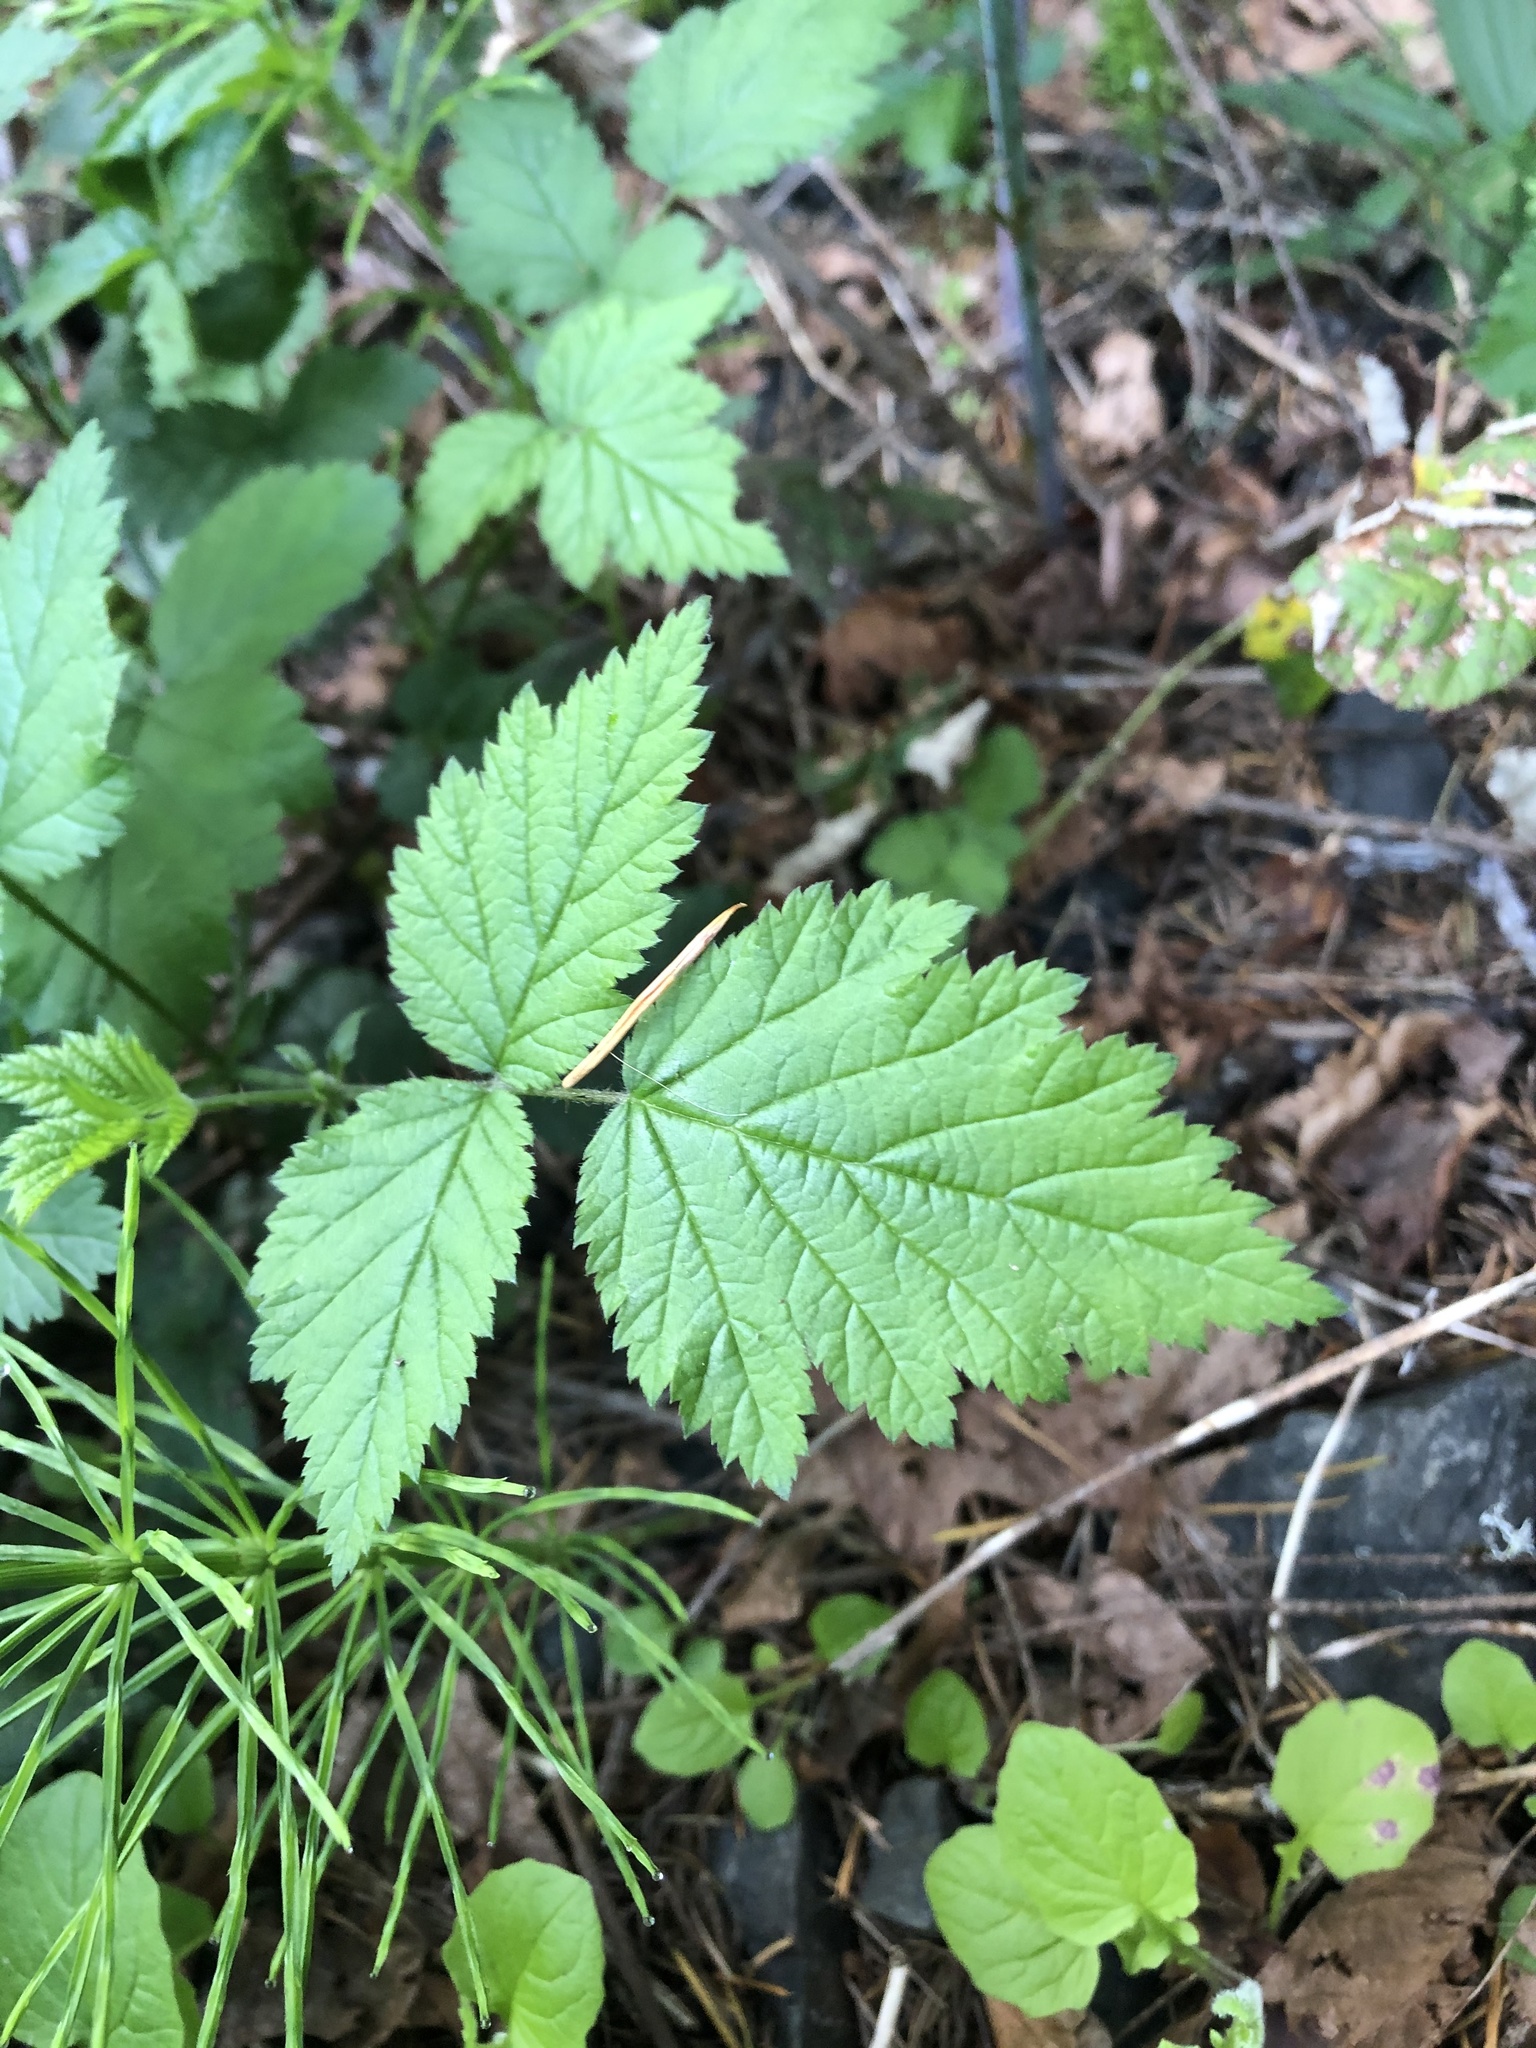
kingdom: Plantae
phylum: Tracheophyta
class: Magnoliopsida
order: Rosales
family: Rosaceae
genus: Rubus
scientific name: Rubus spectabilis
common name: Salmonberry
